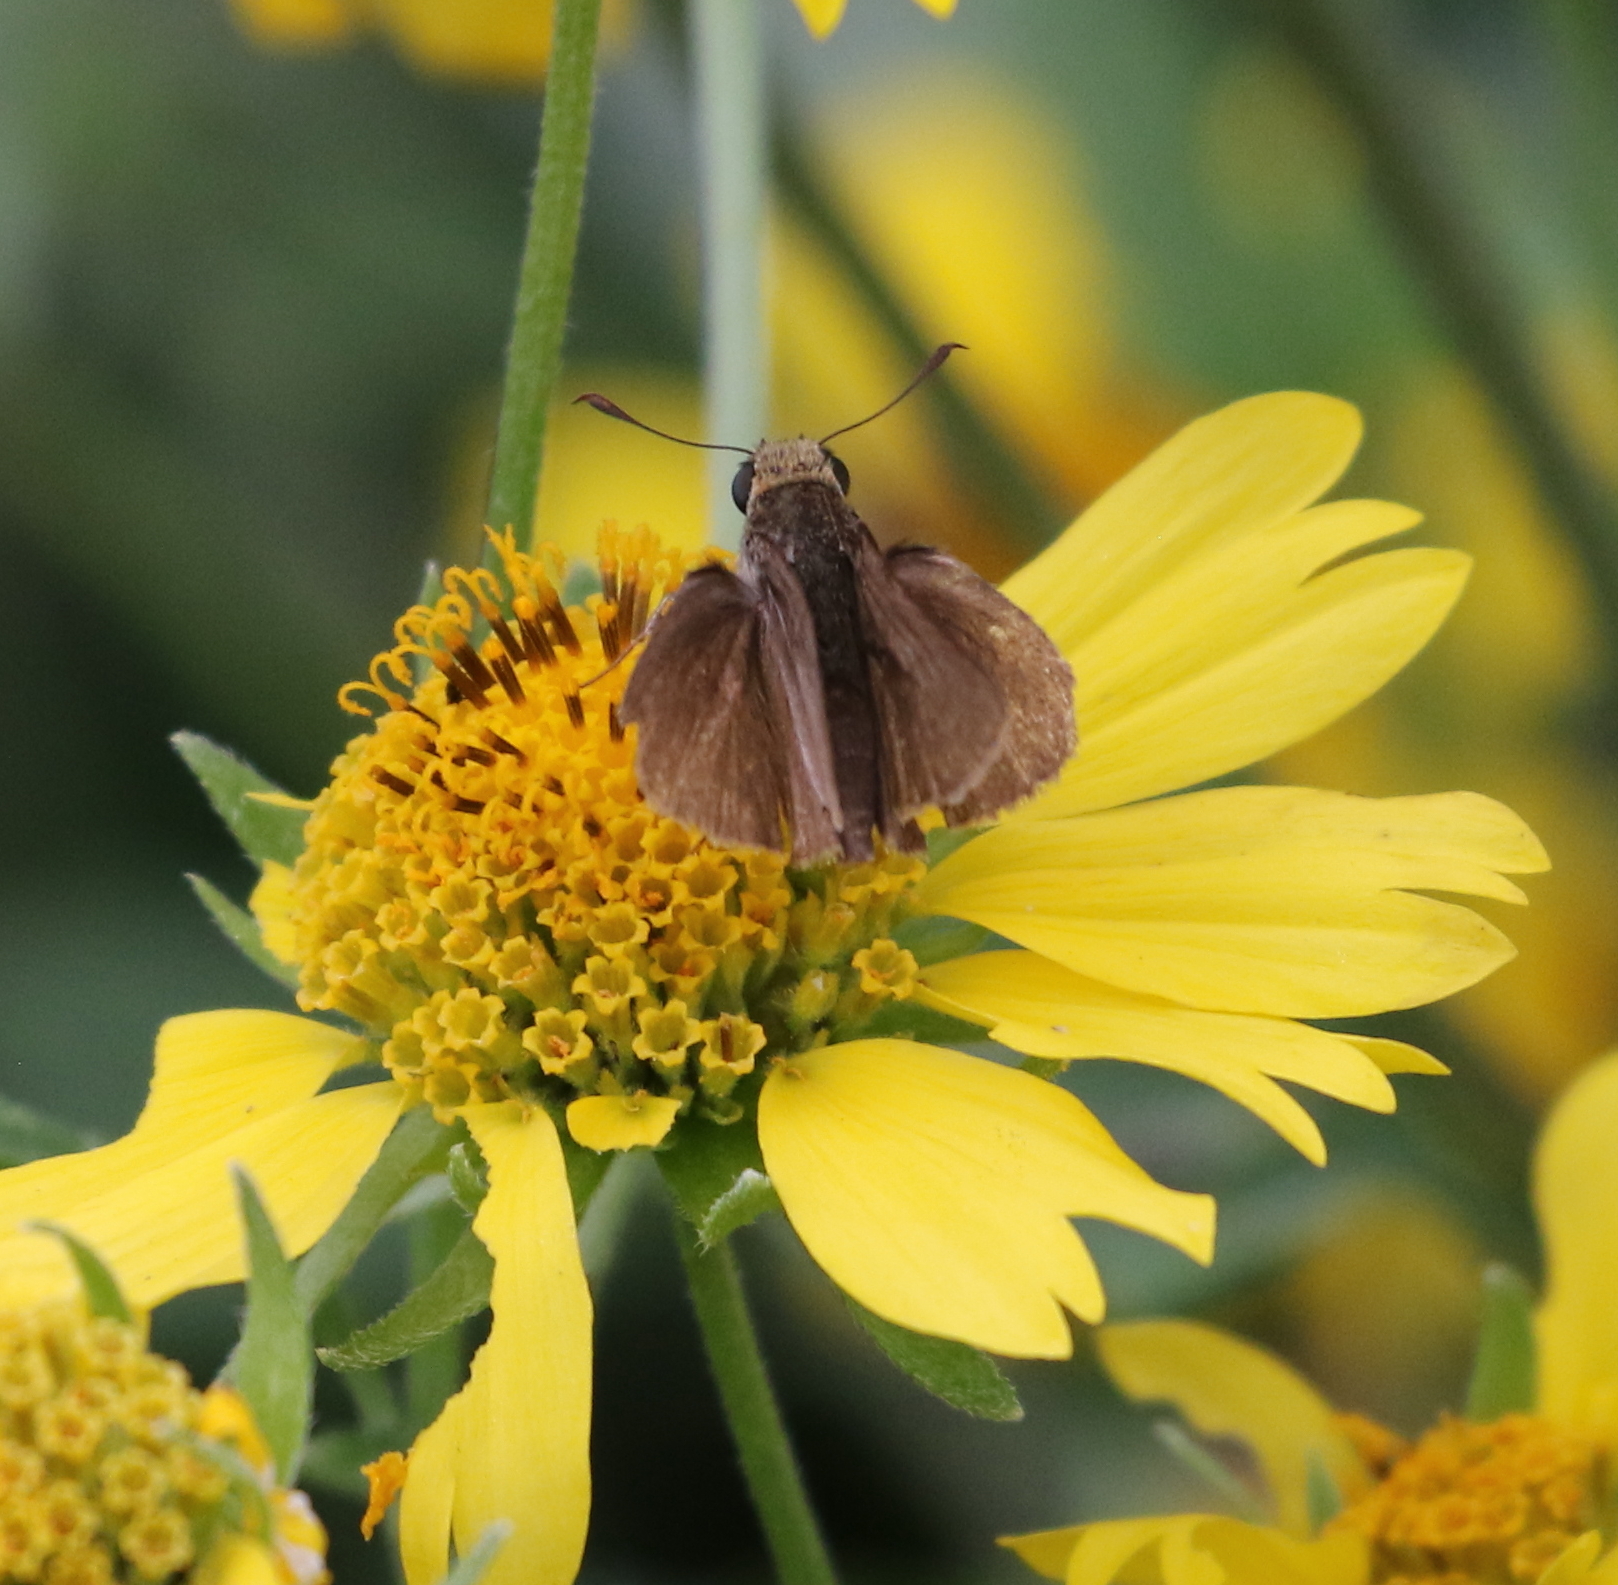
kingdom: Animalia
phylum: Arthropoda
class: Insecta
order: Lepidoptera
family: Hesperiidae
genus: Euphyes
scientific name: Euphyes vestris
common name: Dun skipper
